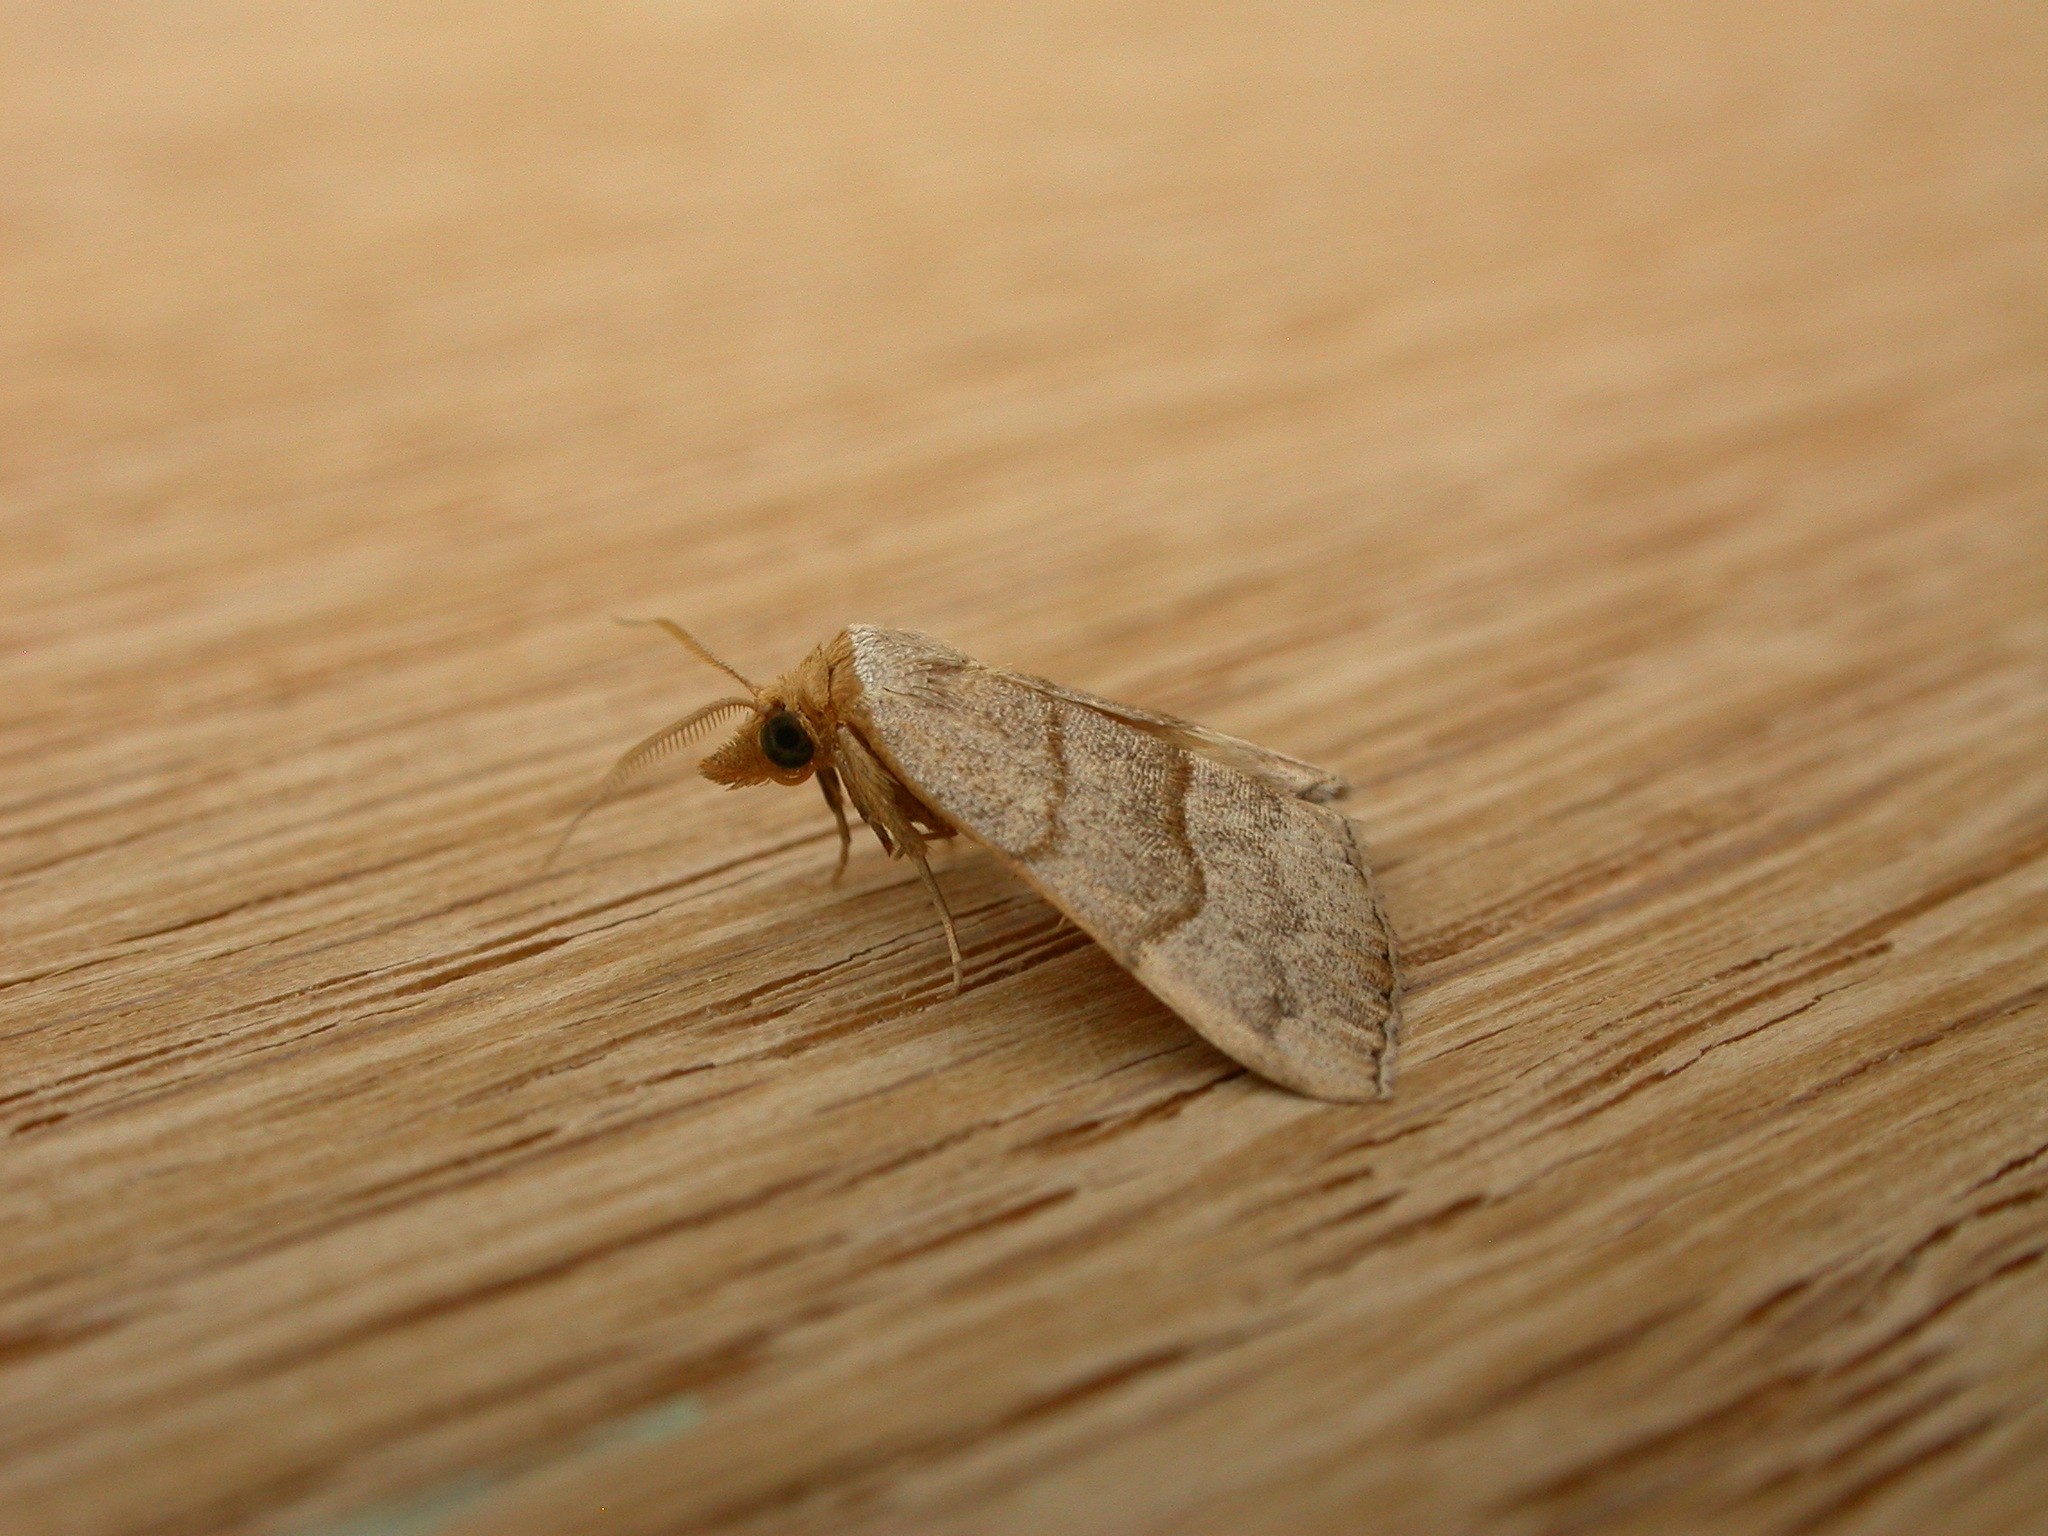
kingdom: Animalia
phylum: Arthropoda
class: Insecta
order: Lepidoptera
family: Erebidae
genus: Meranda
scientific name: Meranda susialis
